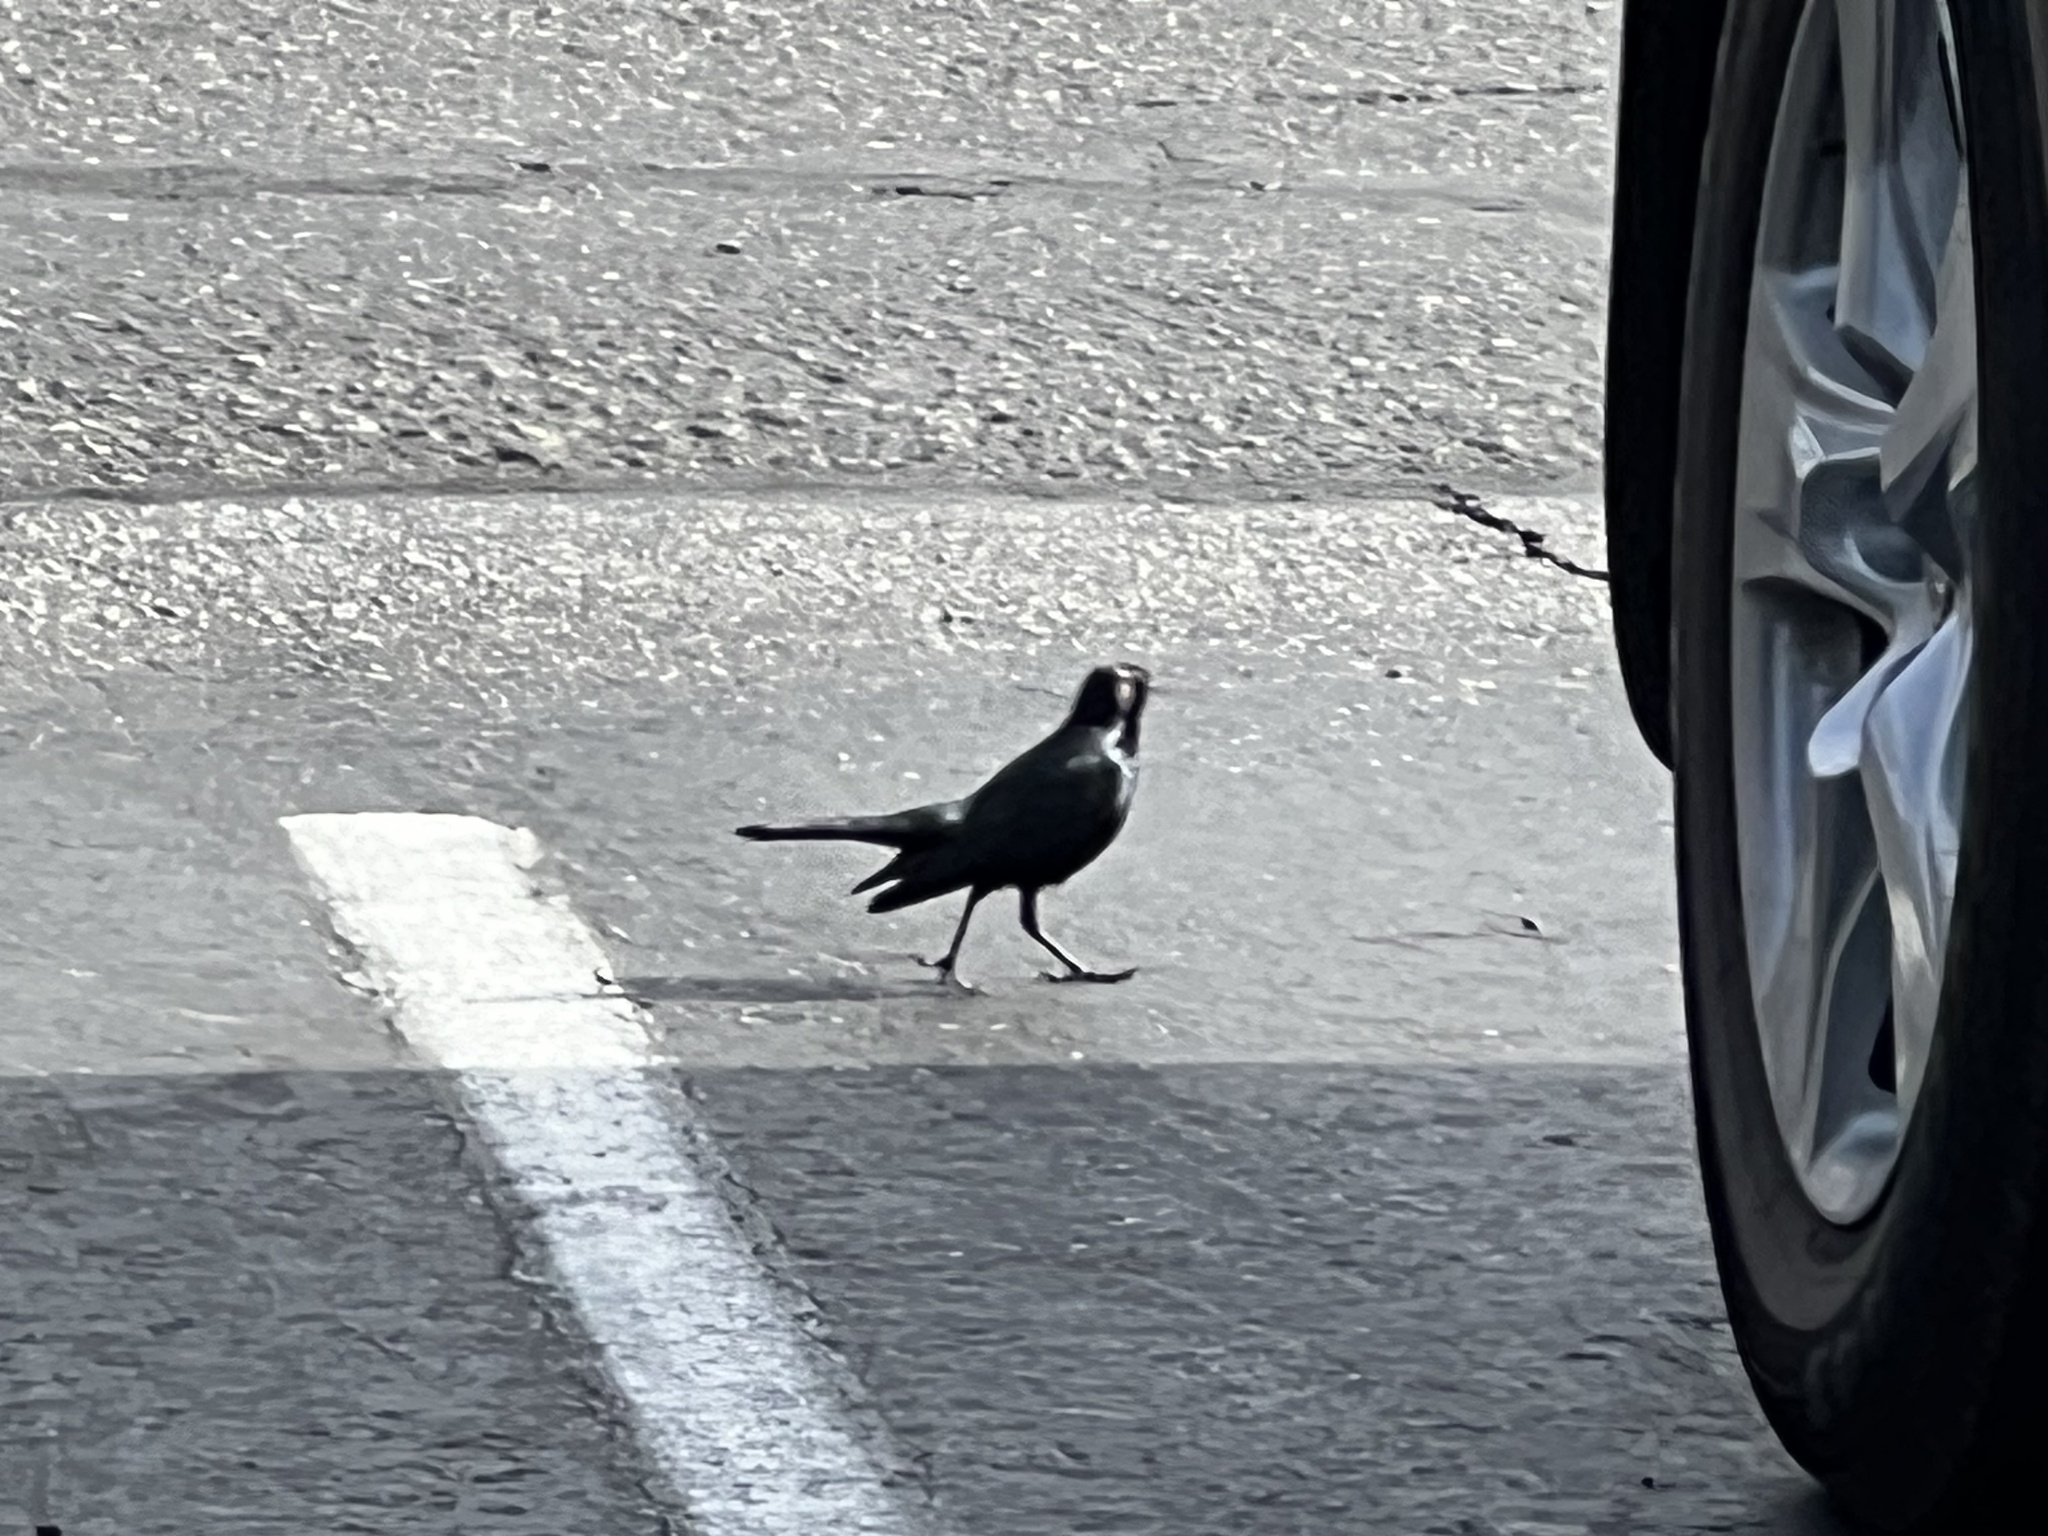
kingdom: Animalia
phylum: Chordata
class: Aves
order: Passeriformes
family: Icteridae
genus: Euphagus
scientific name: Euphagus cyanocephalus
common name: Brewer's blackbird
